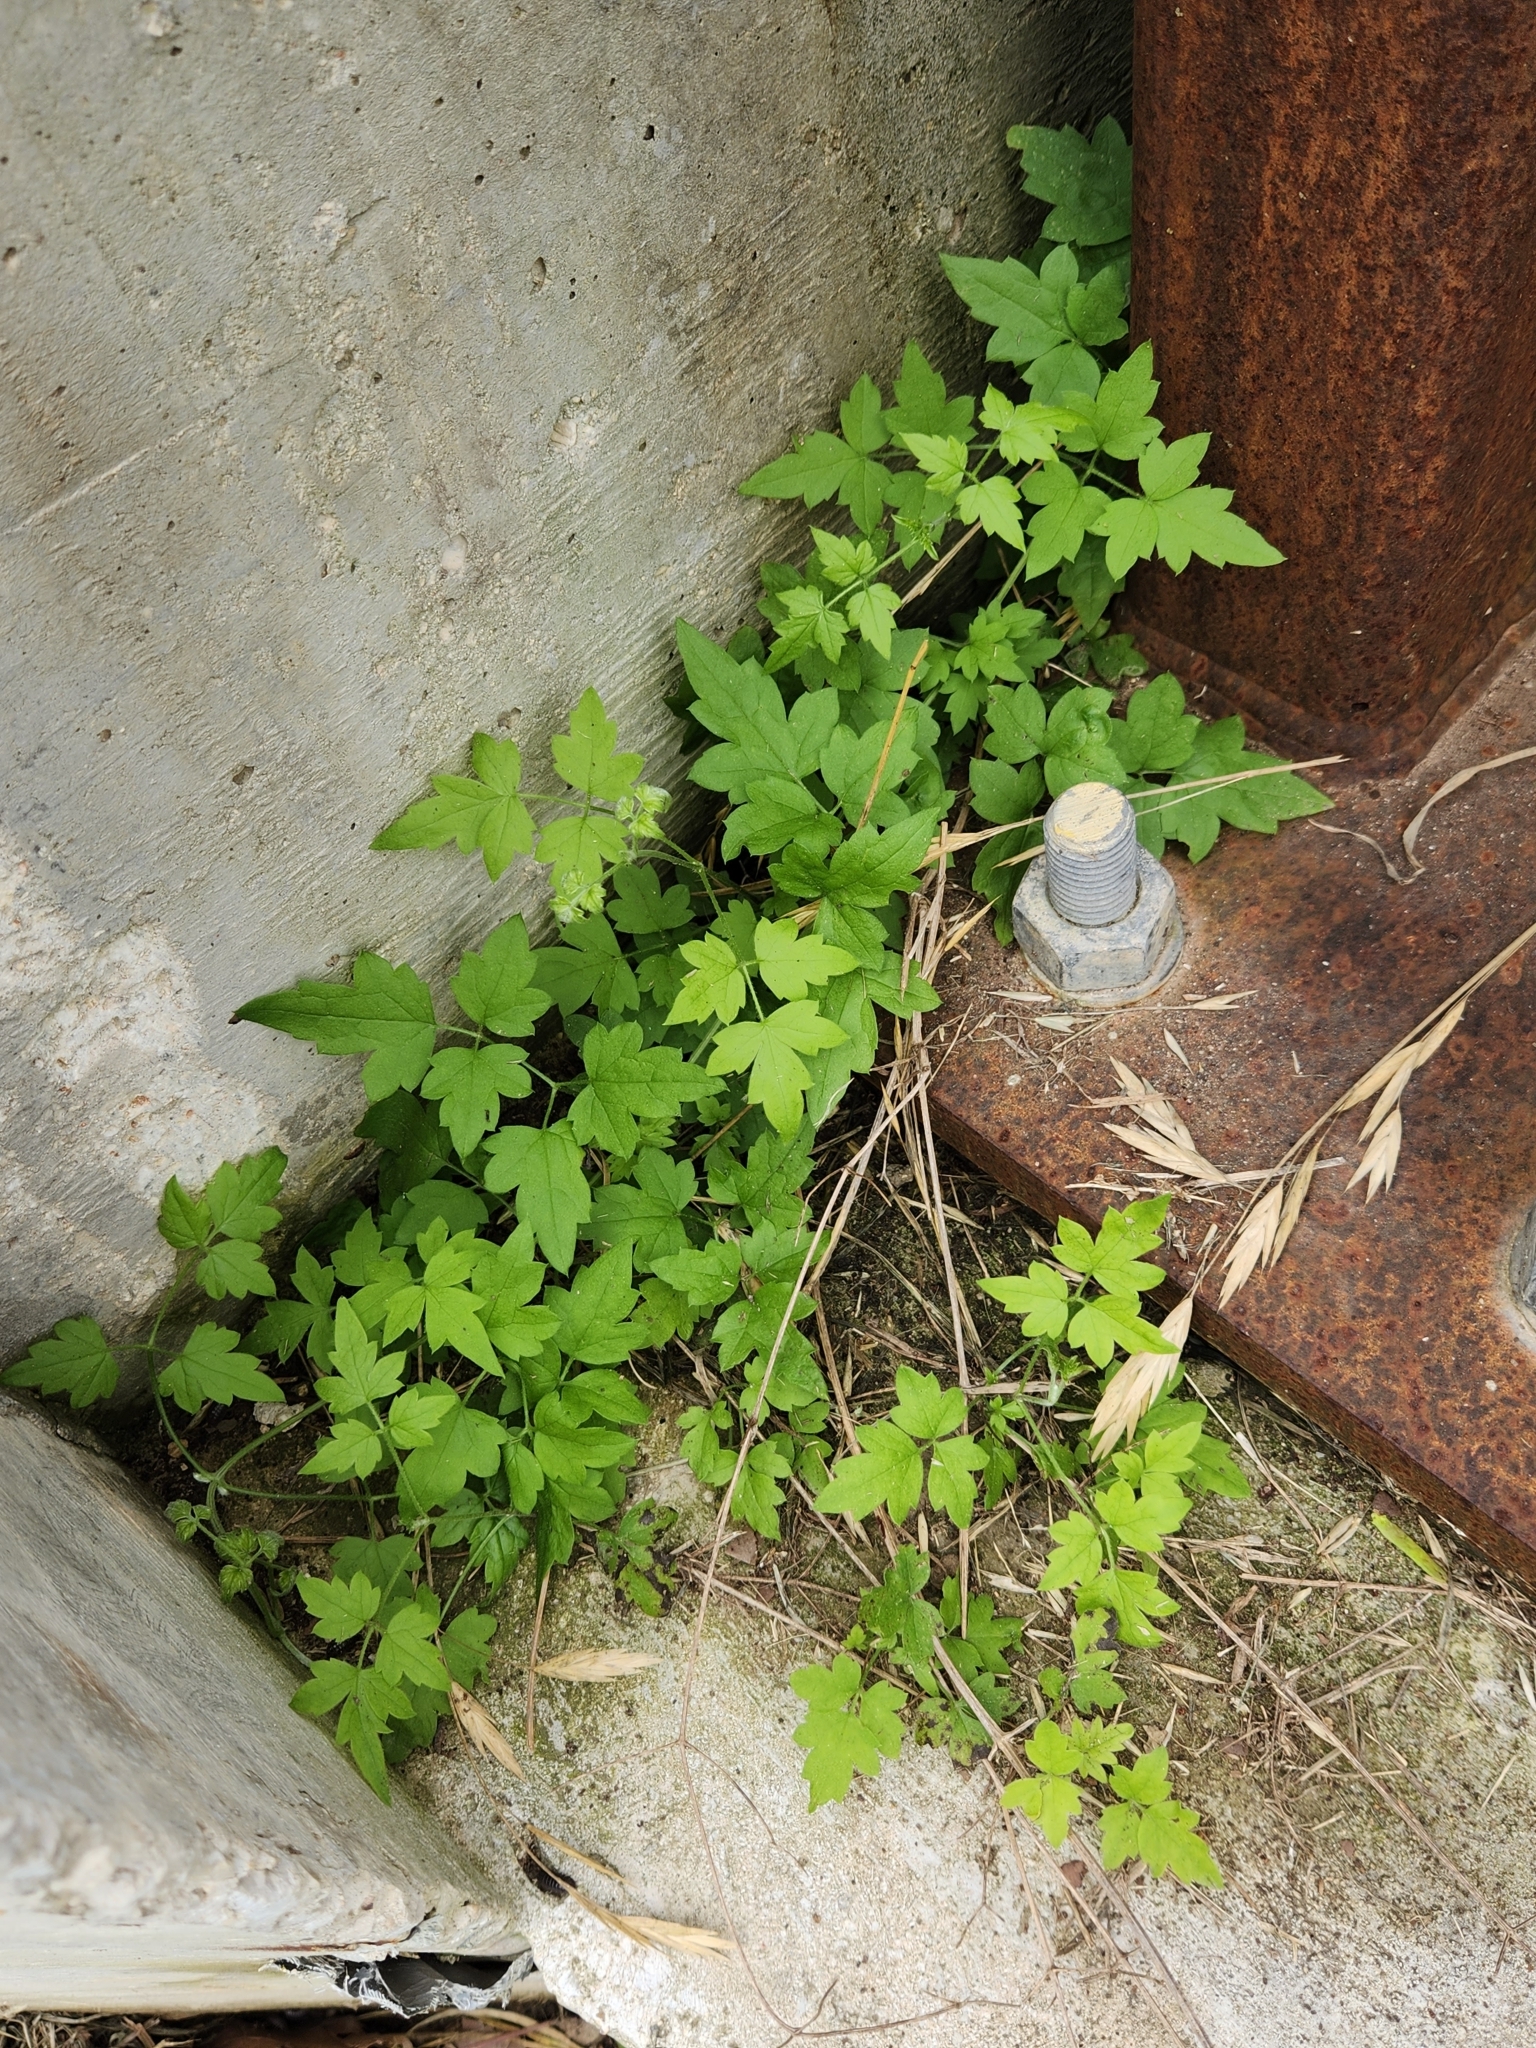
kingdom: Plantae
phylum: Tracheophyta
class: Magnoliopsida
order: Ranunculales
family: Ranunculaceae
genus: Clematis
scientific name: Clematis drummondii
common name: Texas virgin's bower
